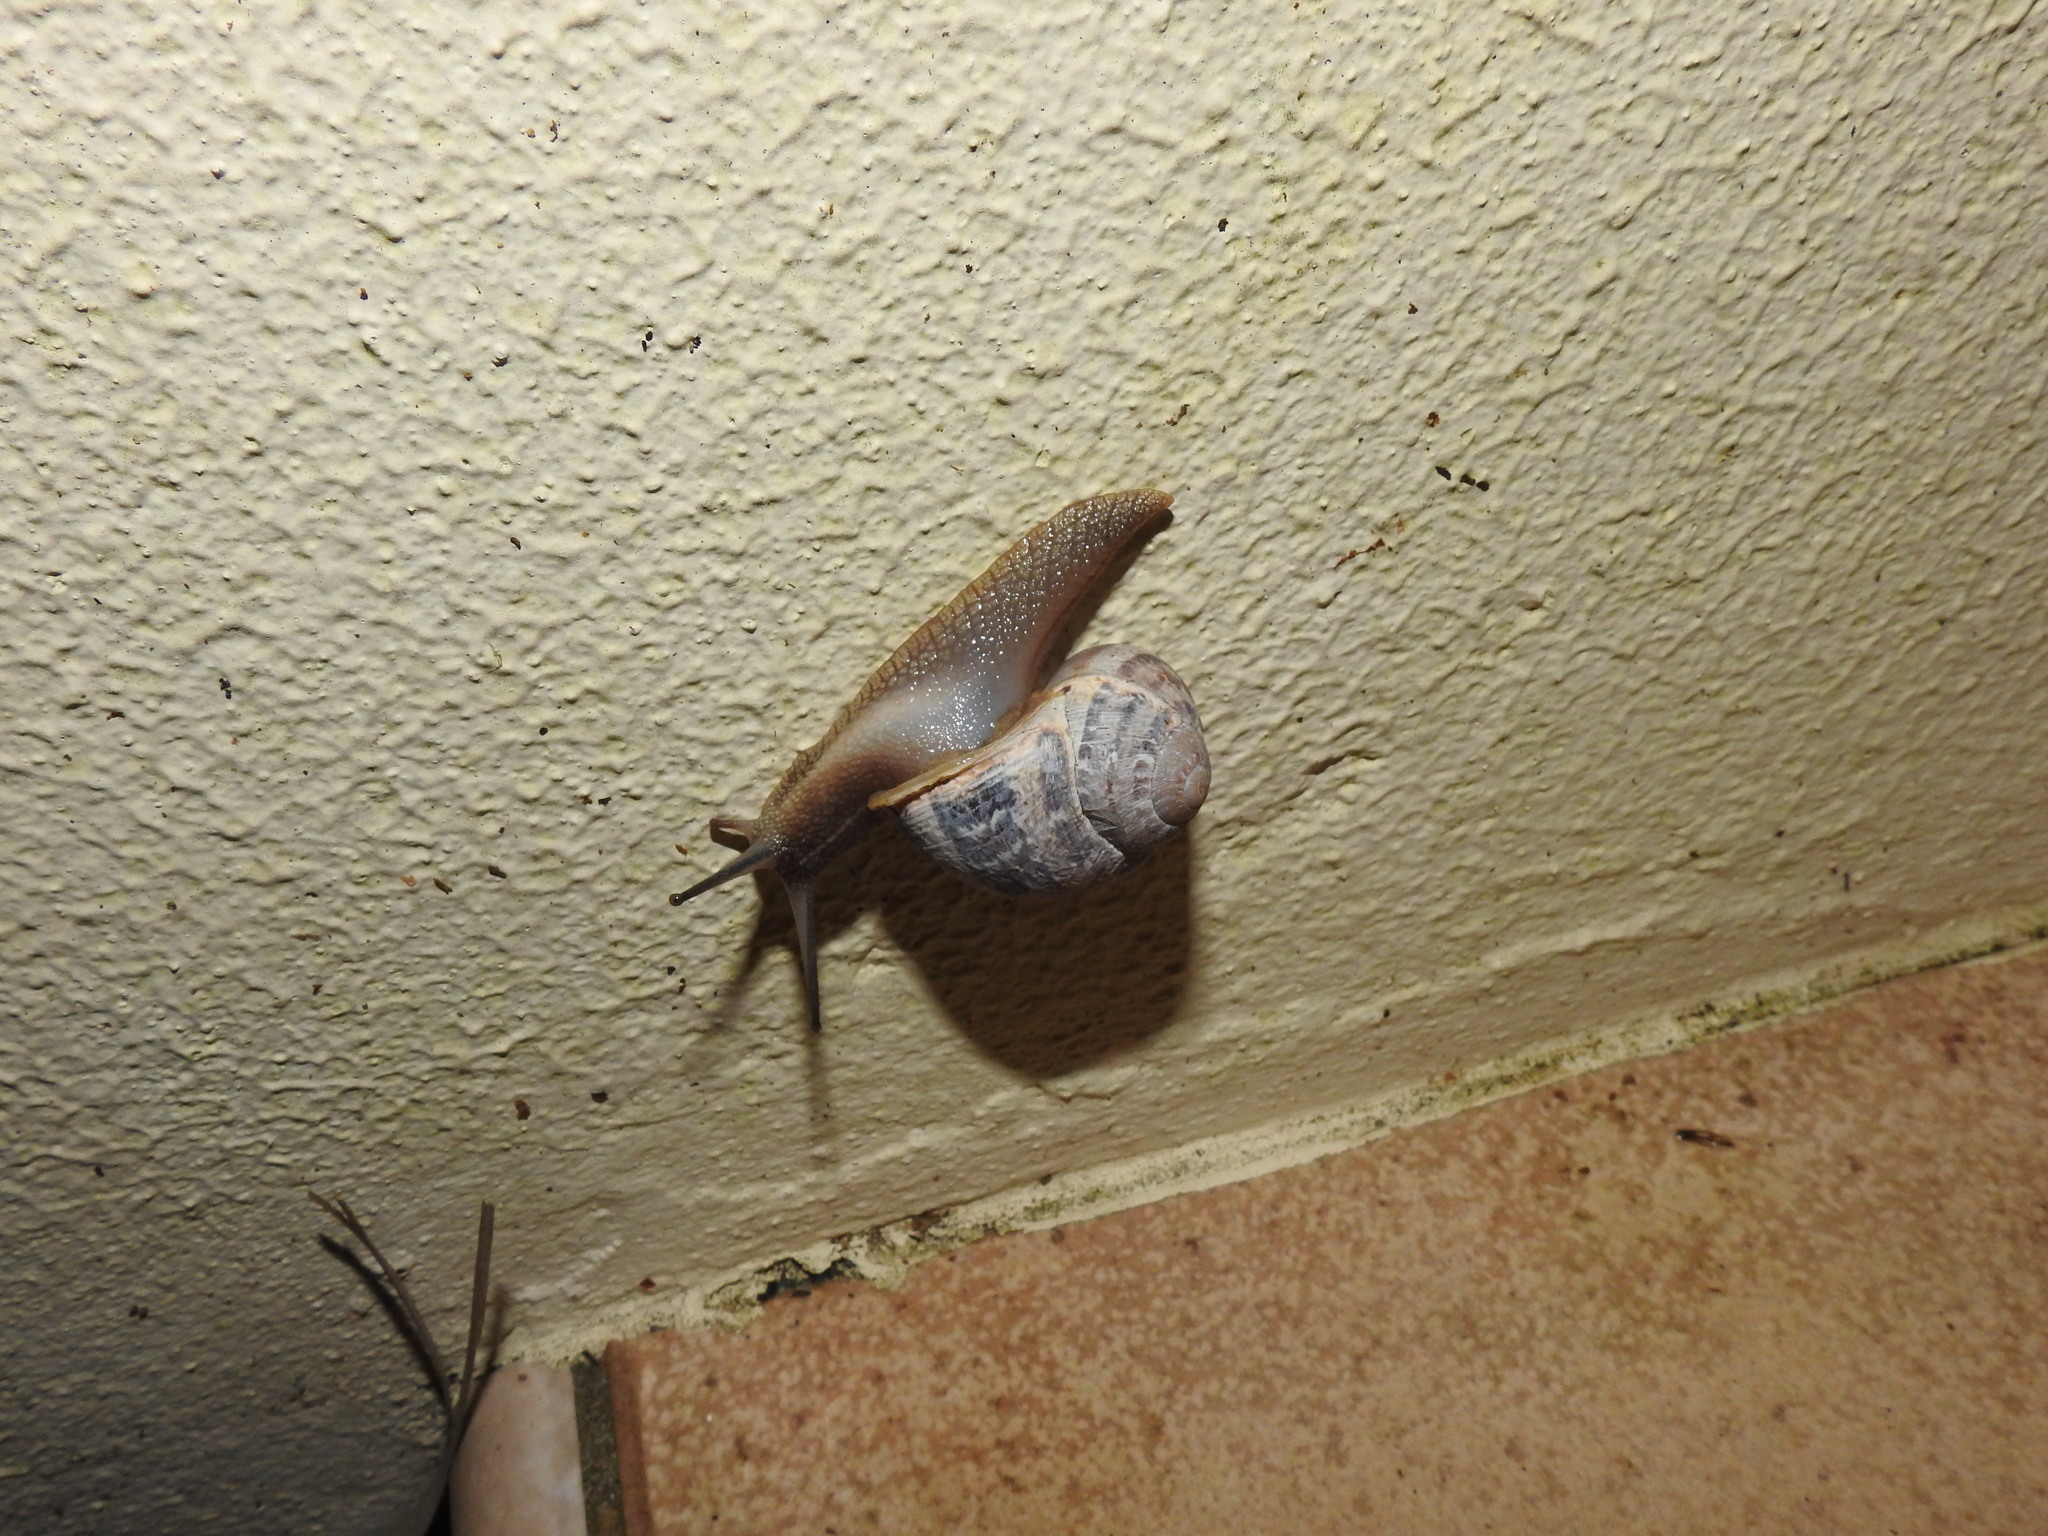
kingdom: Animalia
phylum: Mollusca
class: Gastropoda
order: Stylommatophora
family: Helicidae
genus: Cornu
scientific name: Cornu aspersum
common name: Brown garden snail
